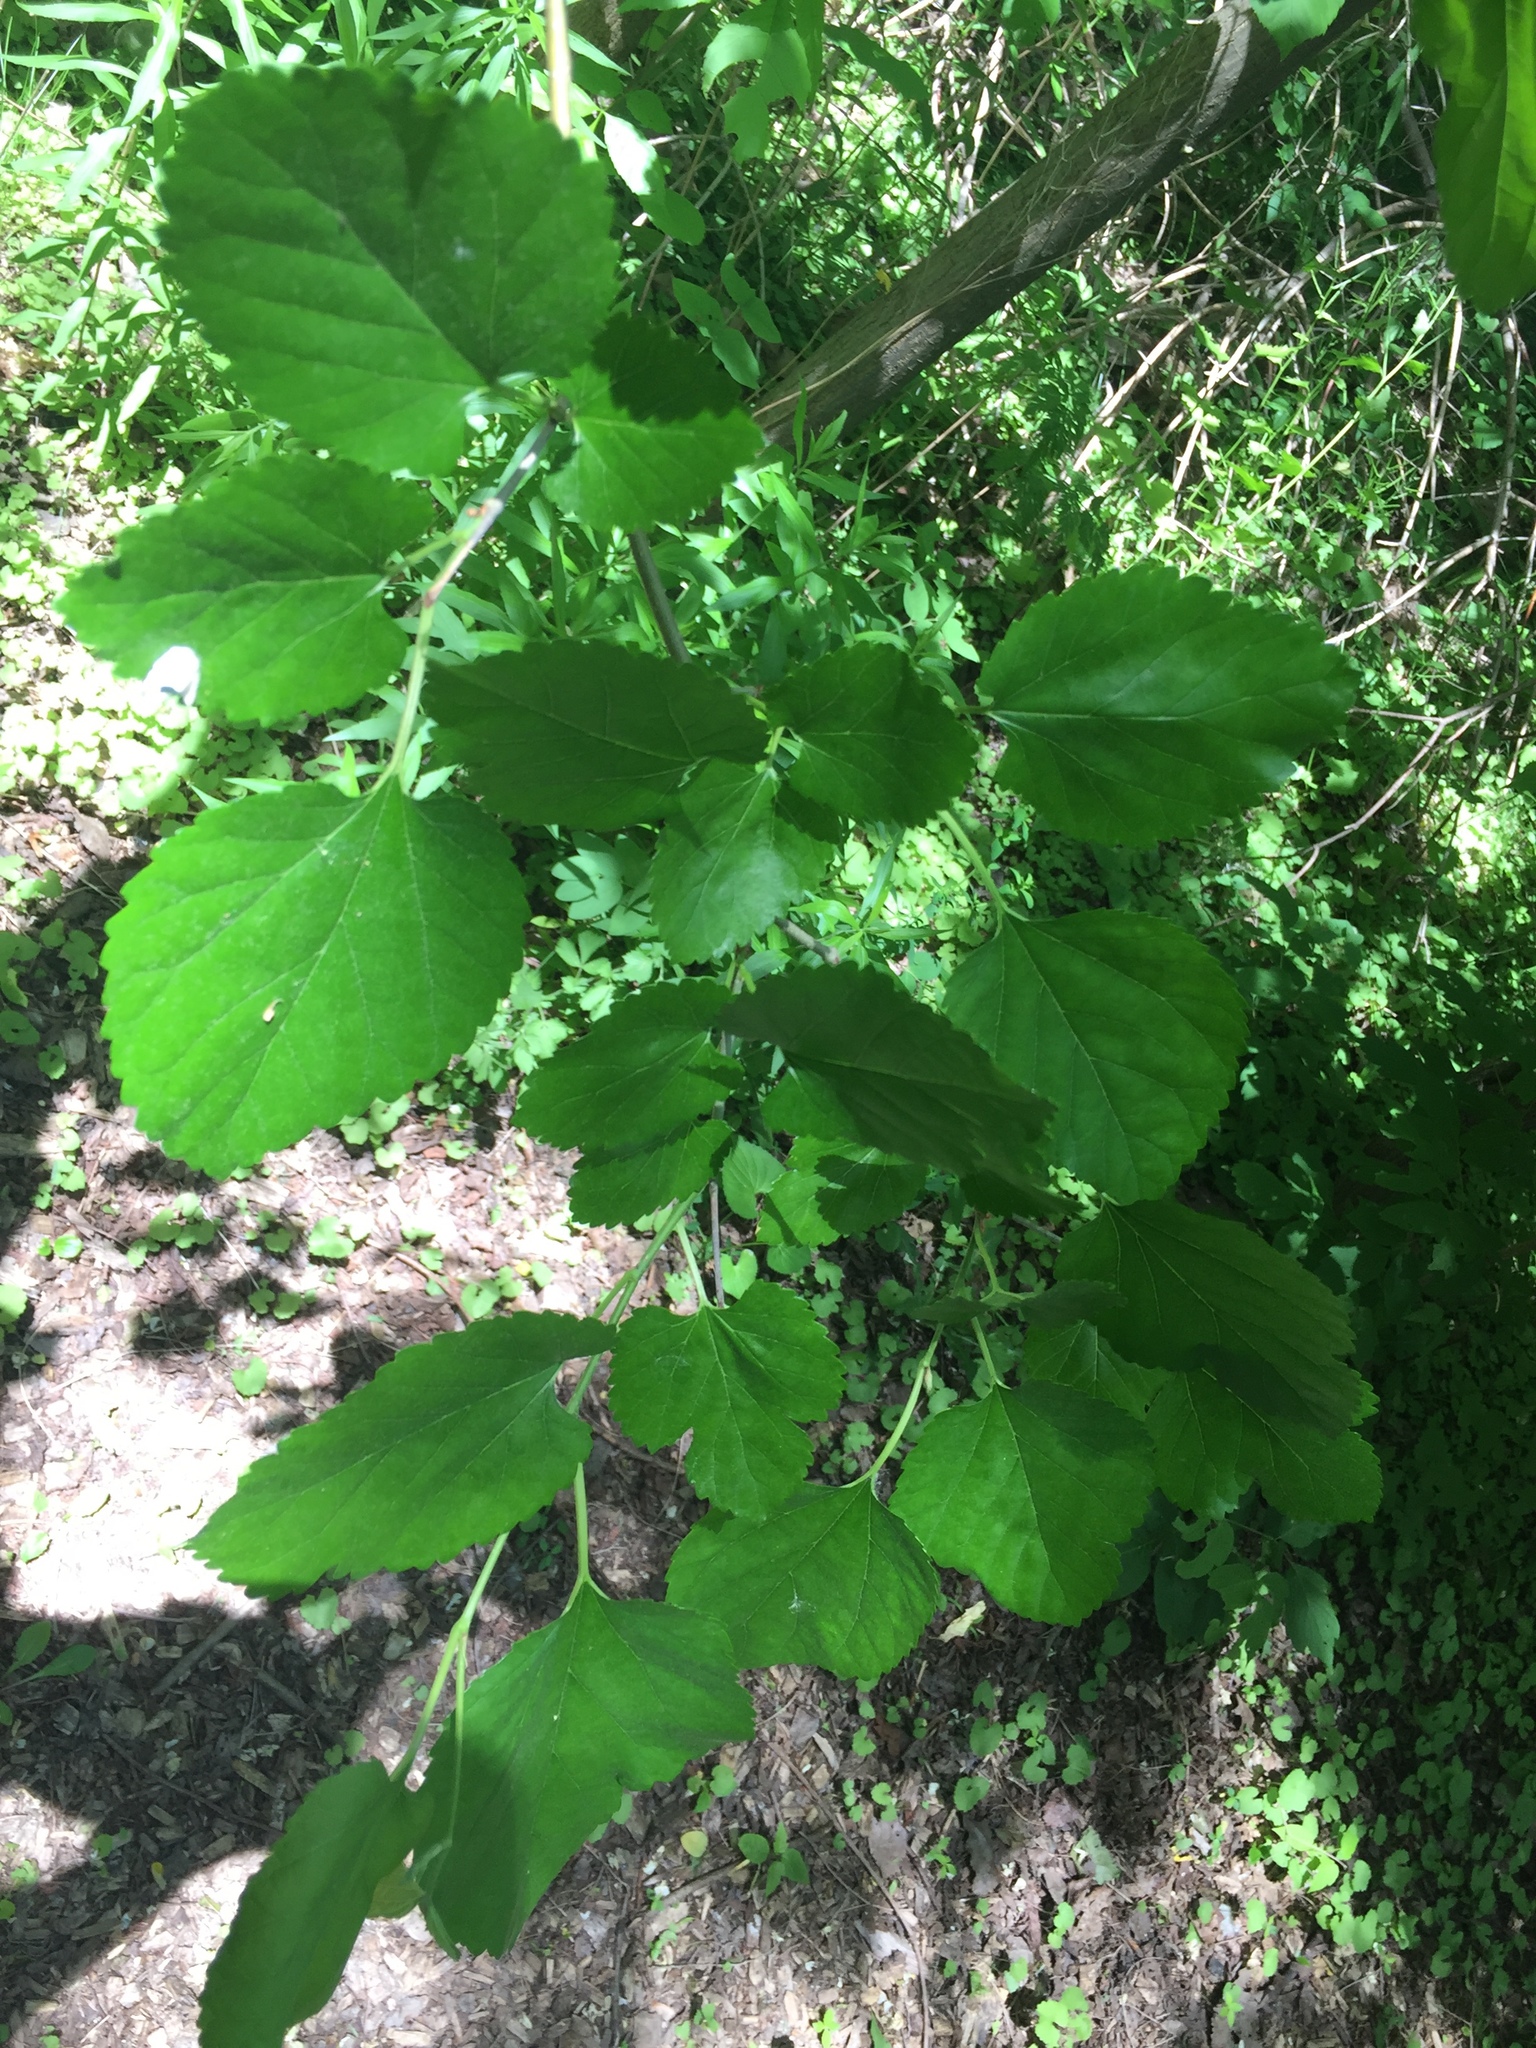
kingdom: Plantae
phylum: Tracheophyta
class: Magnoliopsida
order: Rosales
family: Moraceae
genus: Morus
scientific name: Morus alba
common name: White mulberry
